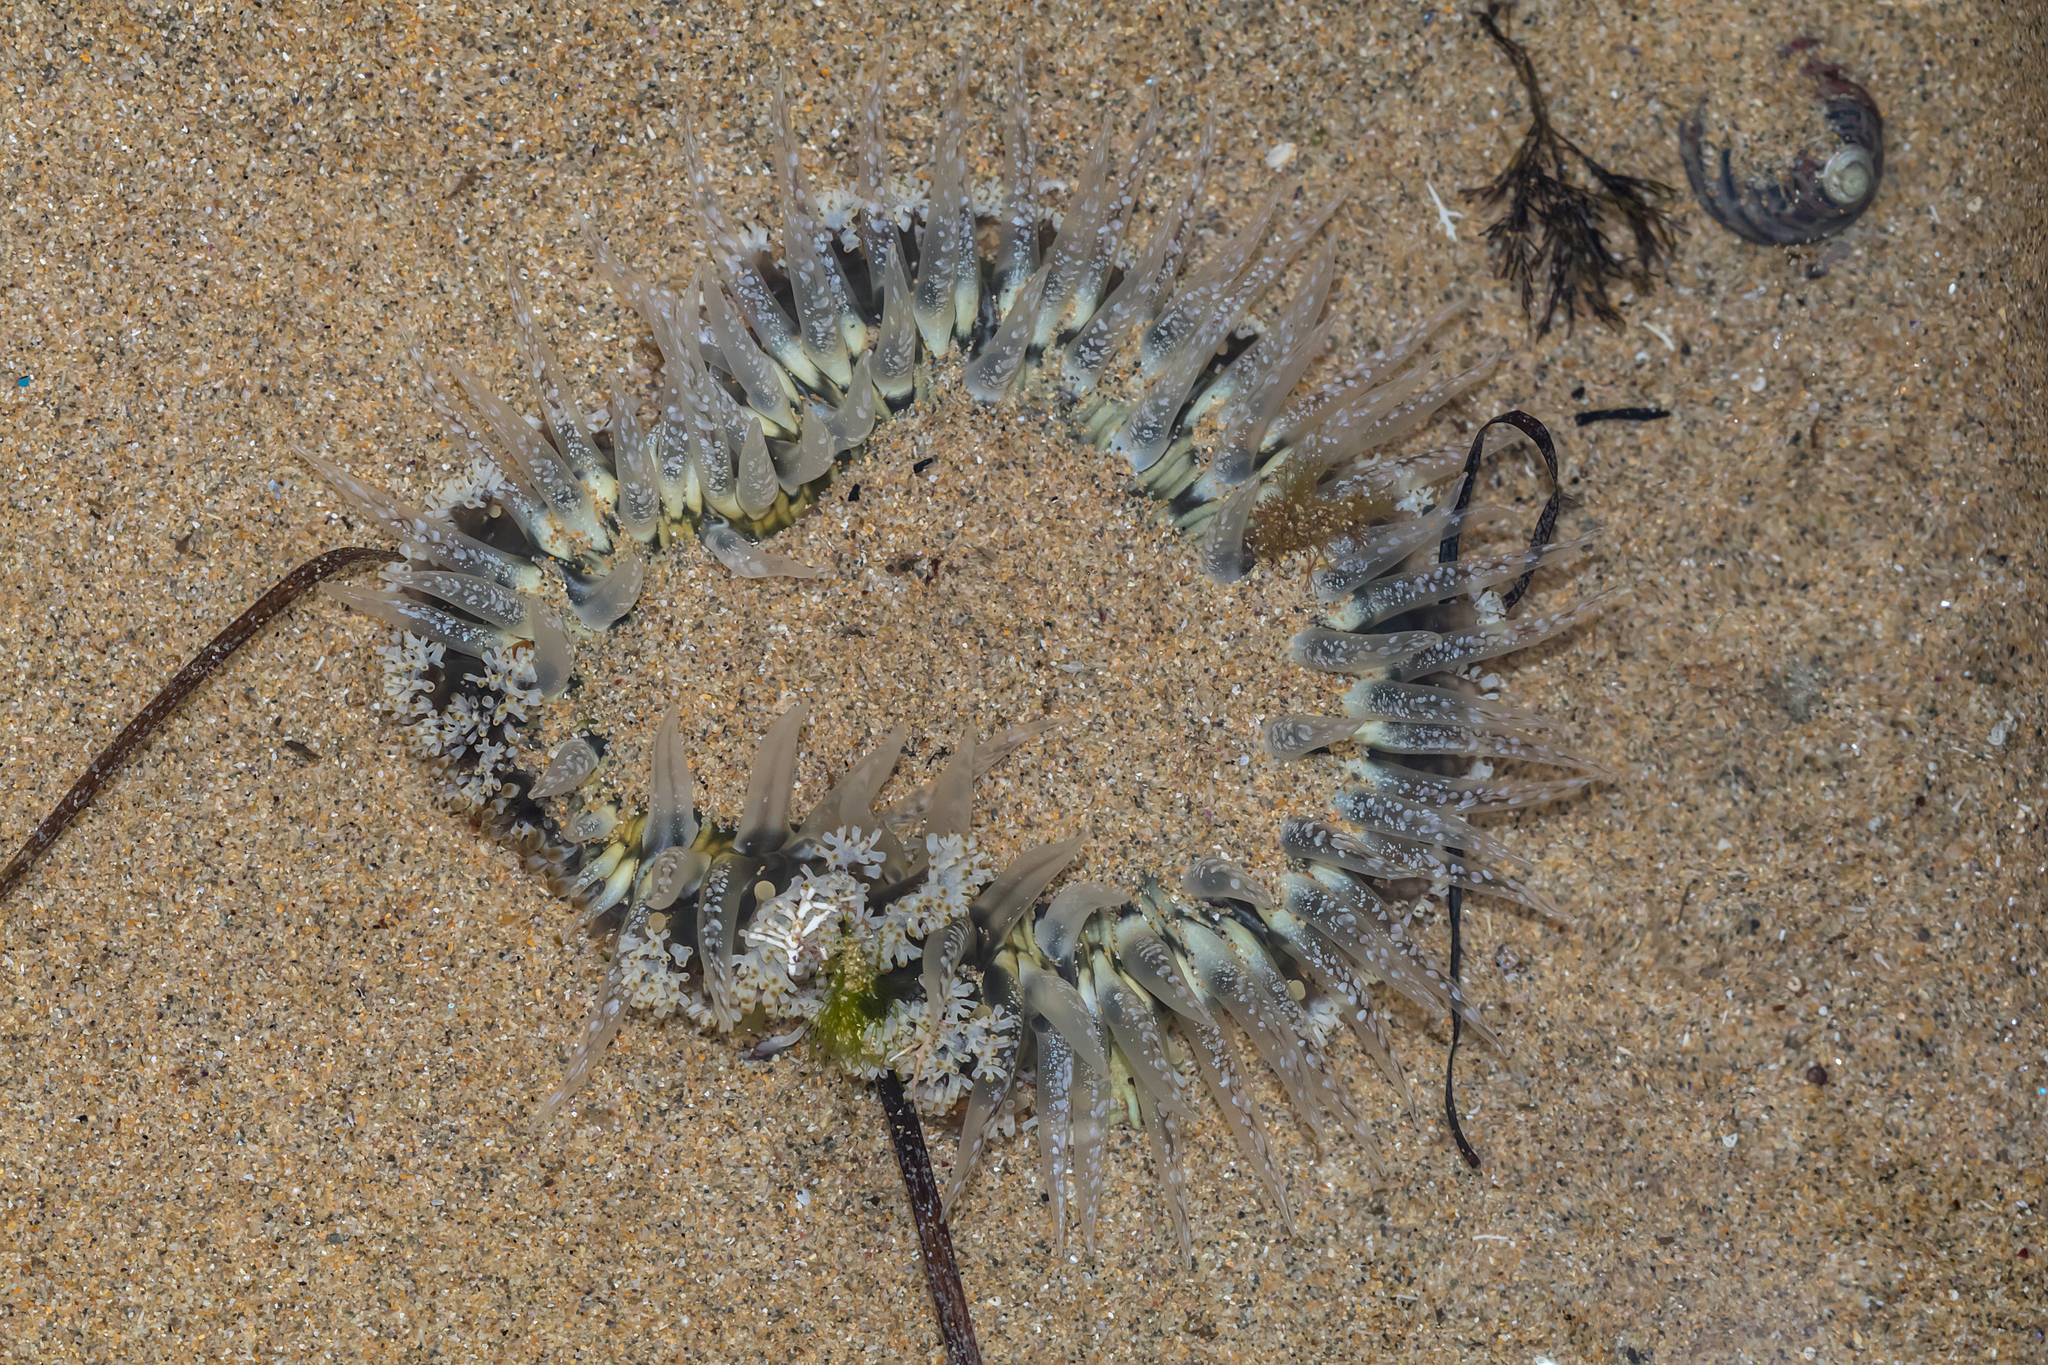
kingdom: Animalia
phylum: Cnidaria
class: Anthozoa
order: Actiniaria
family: Actiniidae
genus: Oulactis
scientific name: Oulactis muscosa
